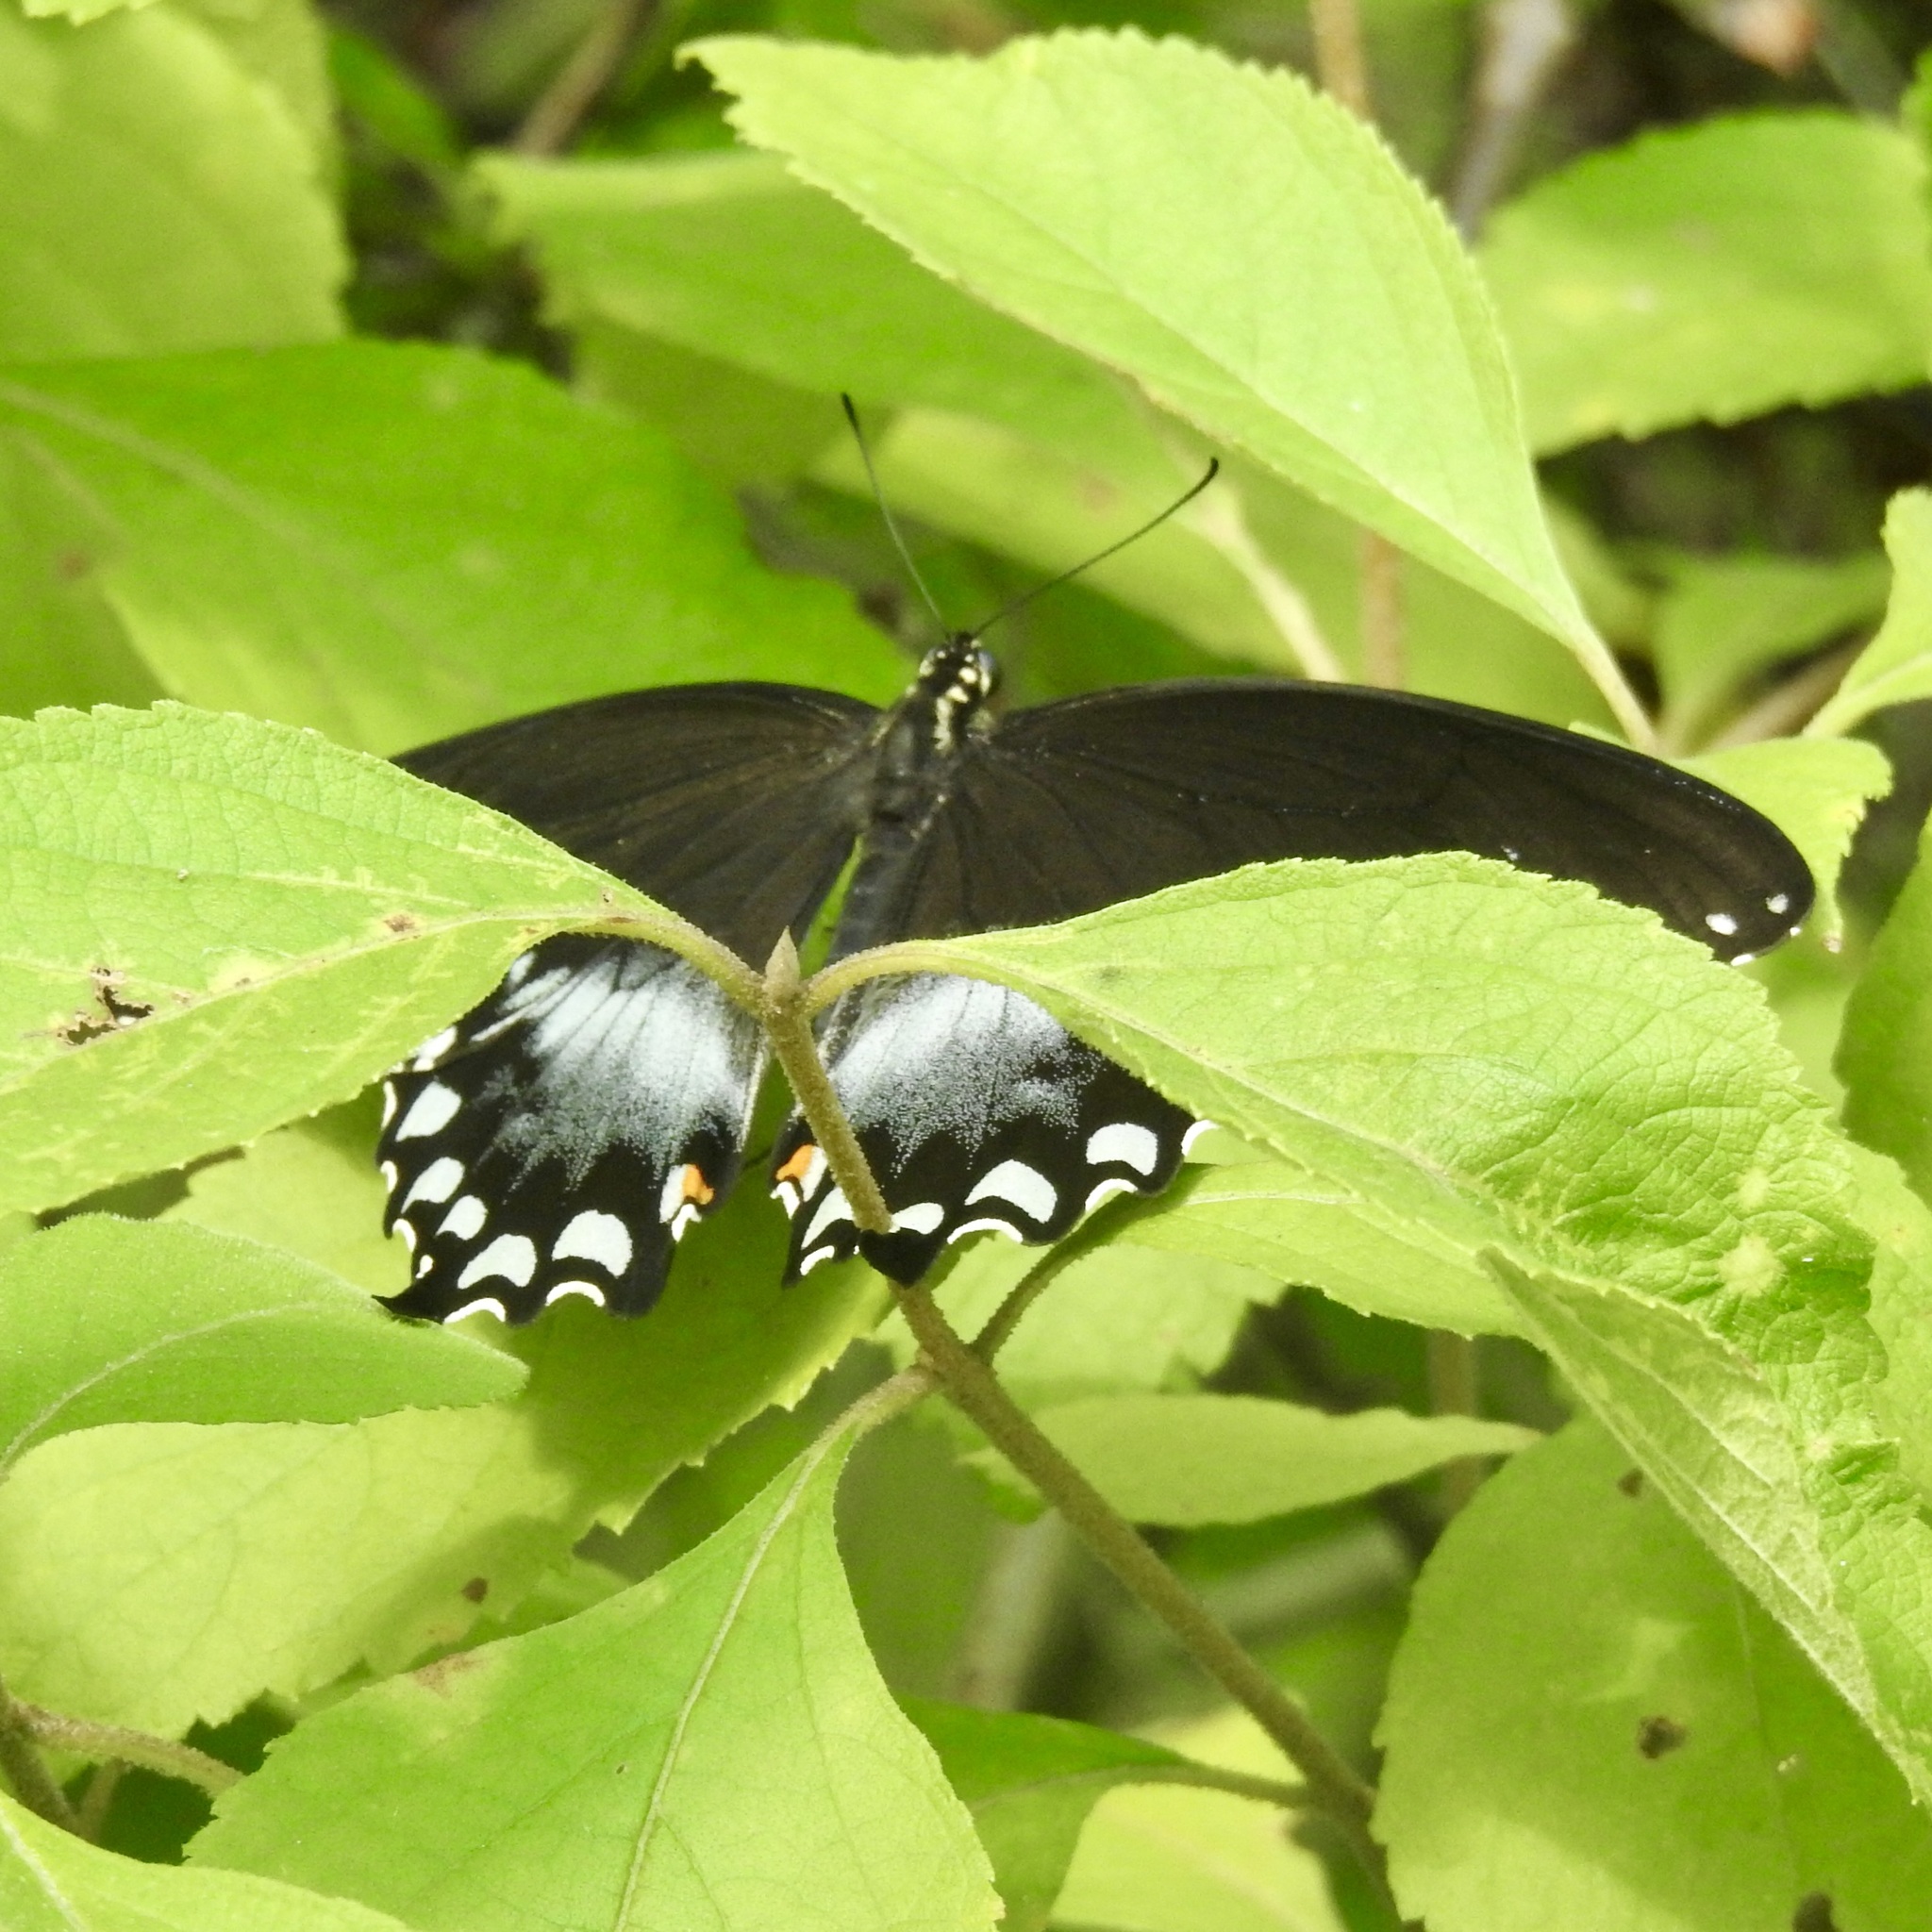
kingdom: Animalia
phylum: Arthropoda
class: Insecta
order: Lepidoptera
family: Papilionidae
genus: Papilio
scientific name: Papilio troilus
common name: Spicebush swallowtail
